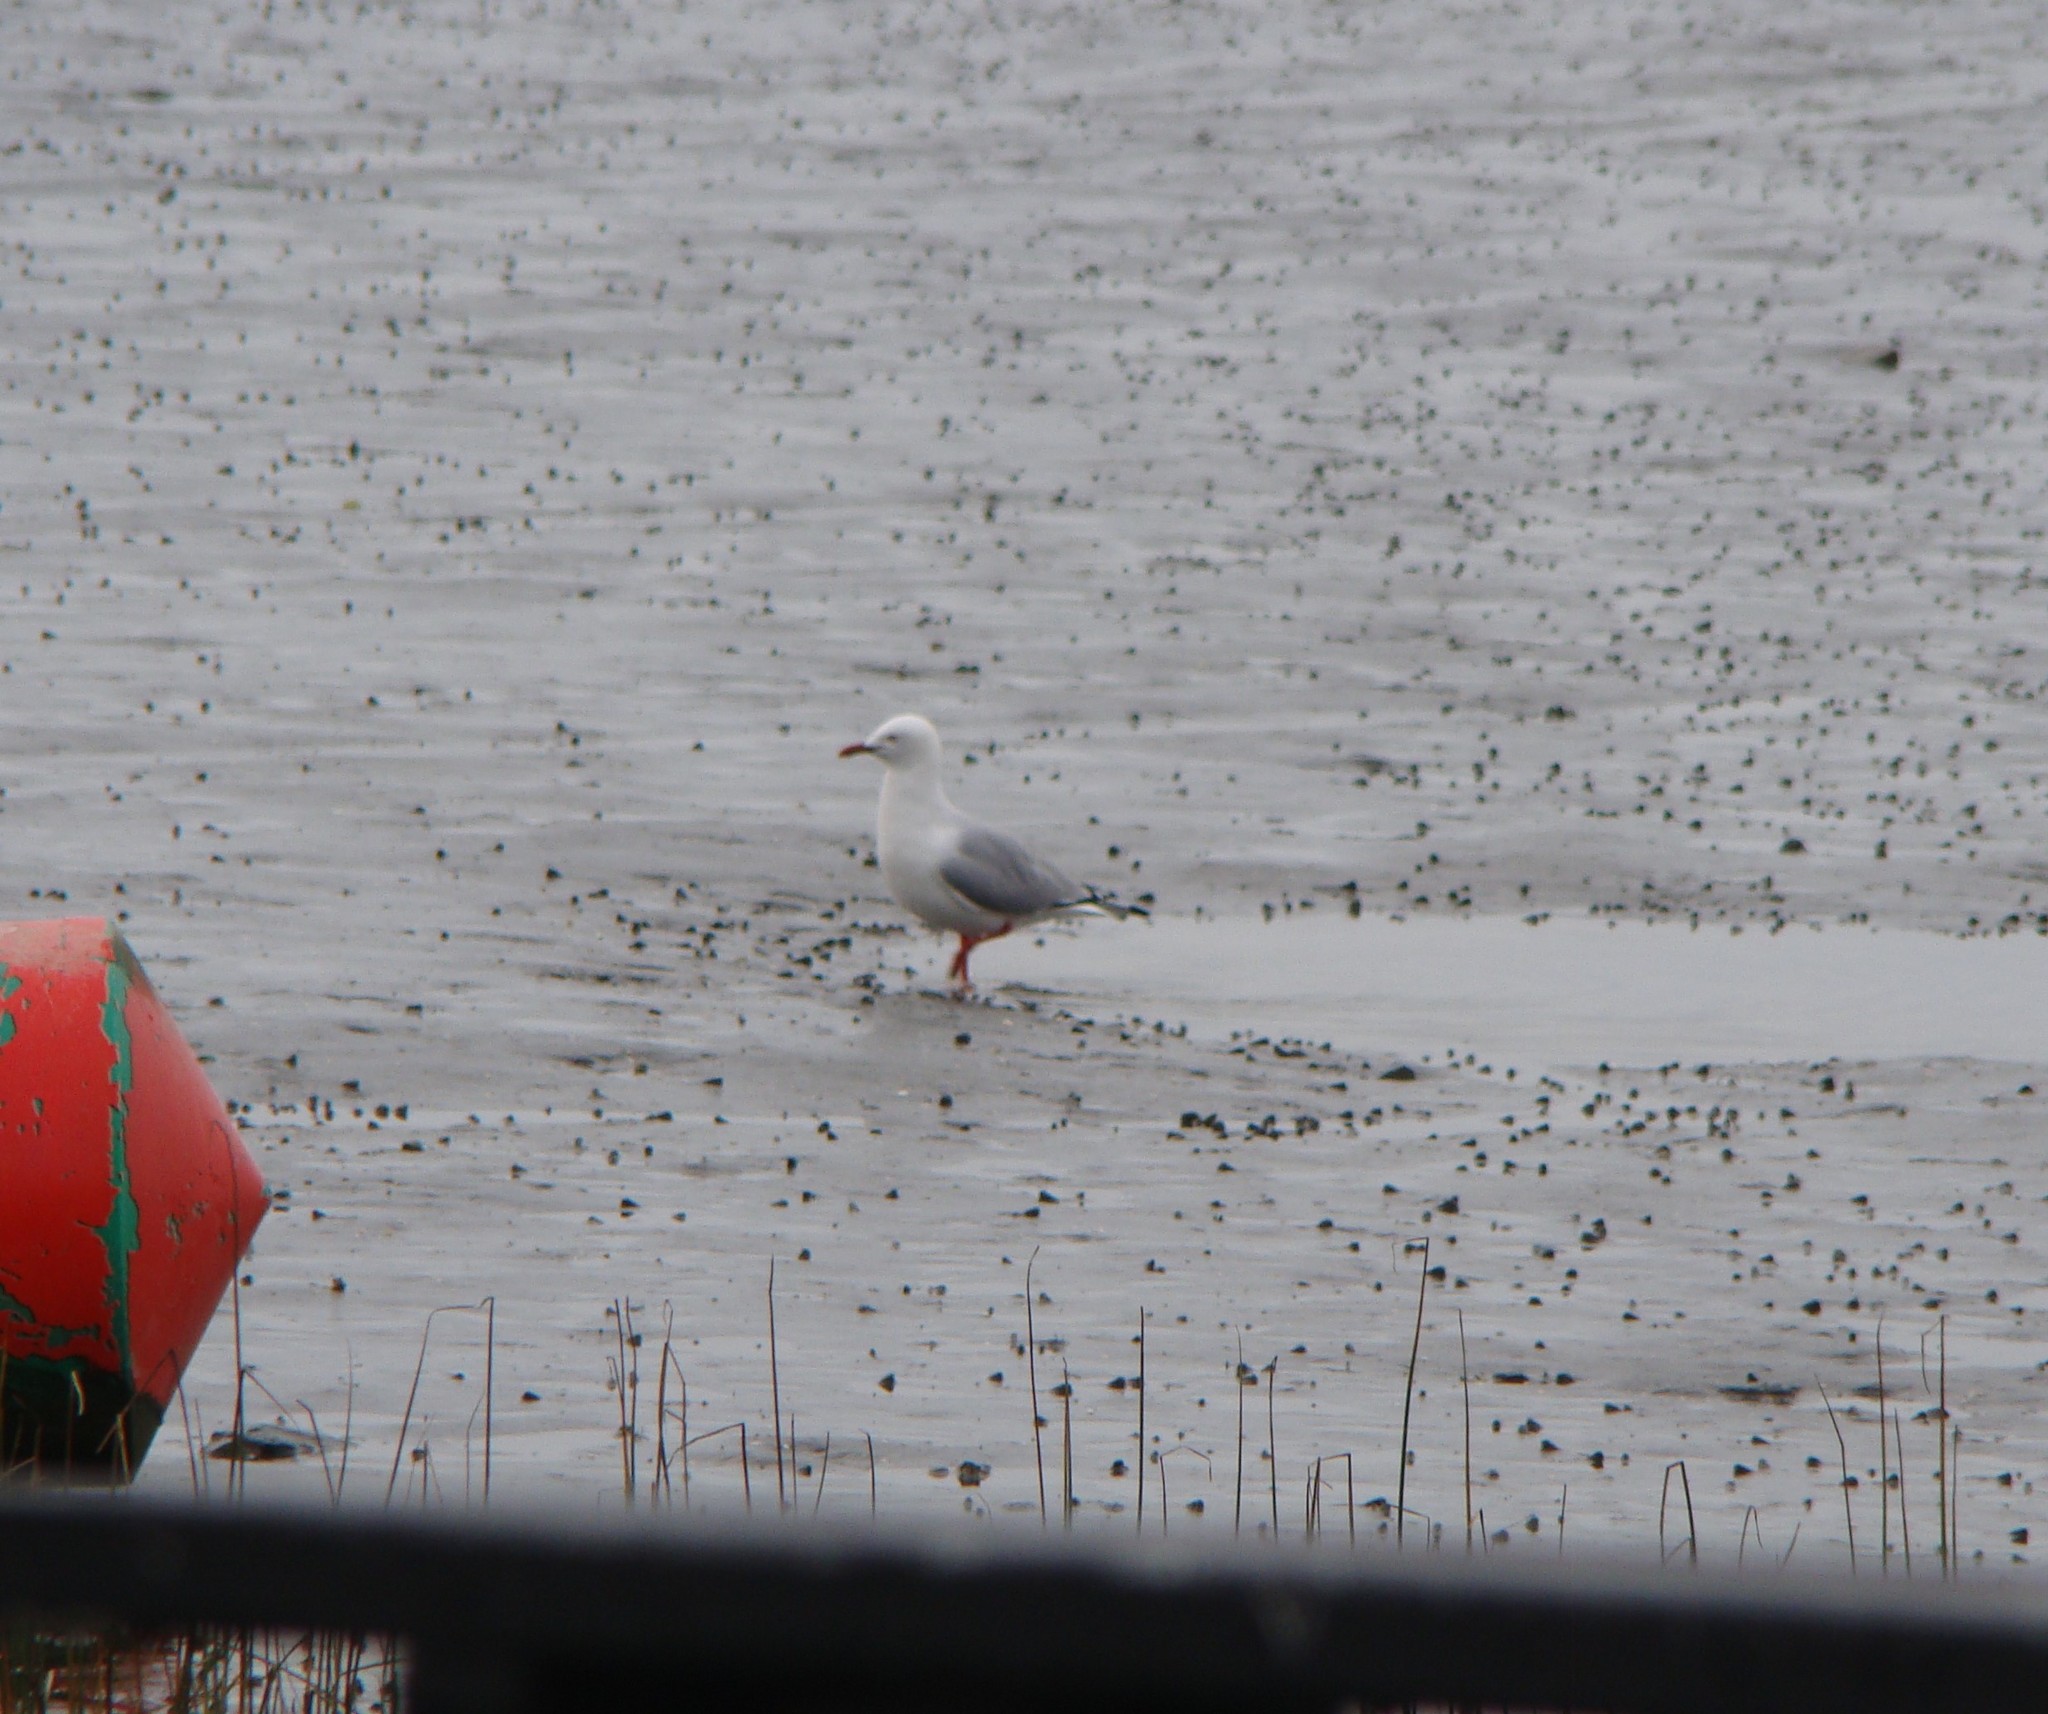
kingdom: Animalia
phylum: Chordata
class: Aves
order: Charadriiformes
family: Laridae
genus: Chroicocephalus
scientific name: Chroicocephalus novaehollandiae
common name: Silver gull
